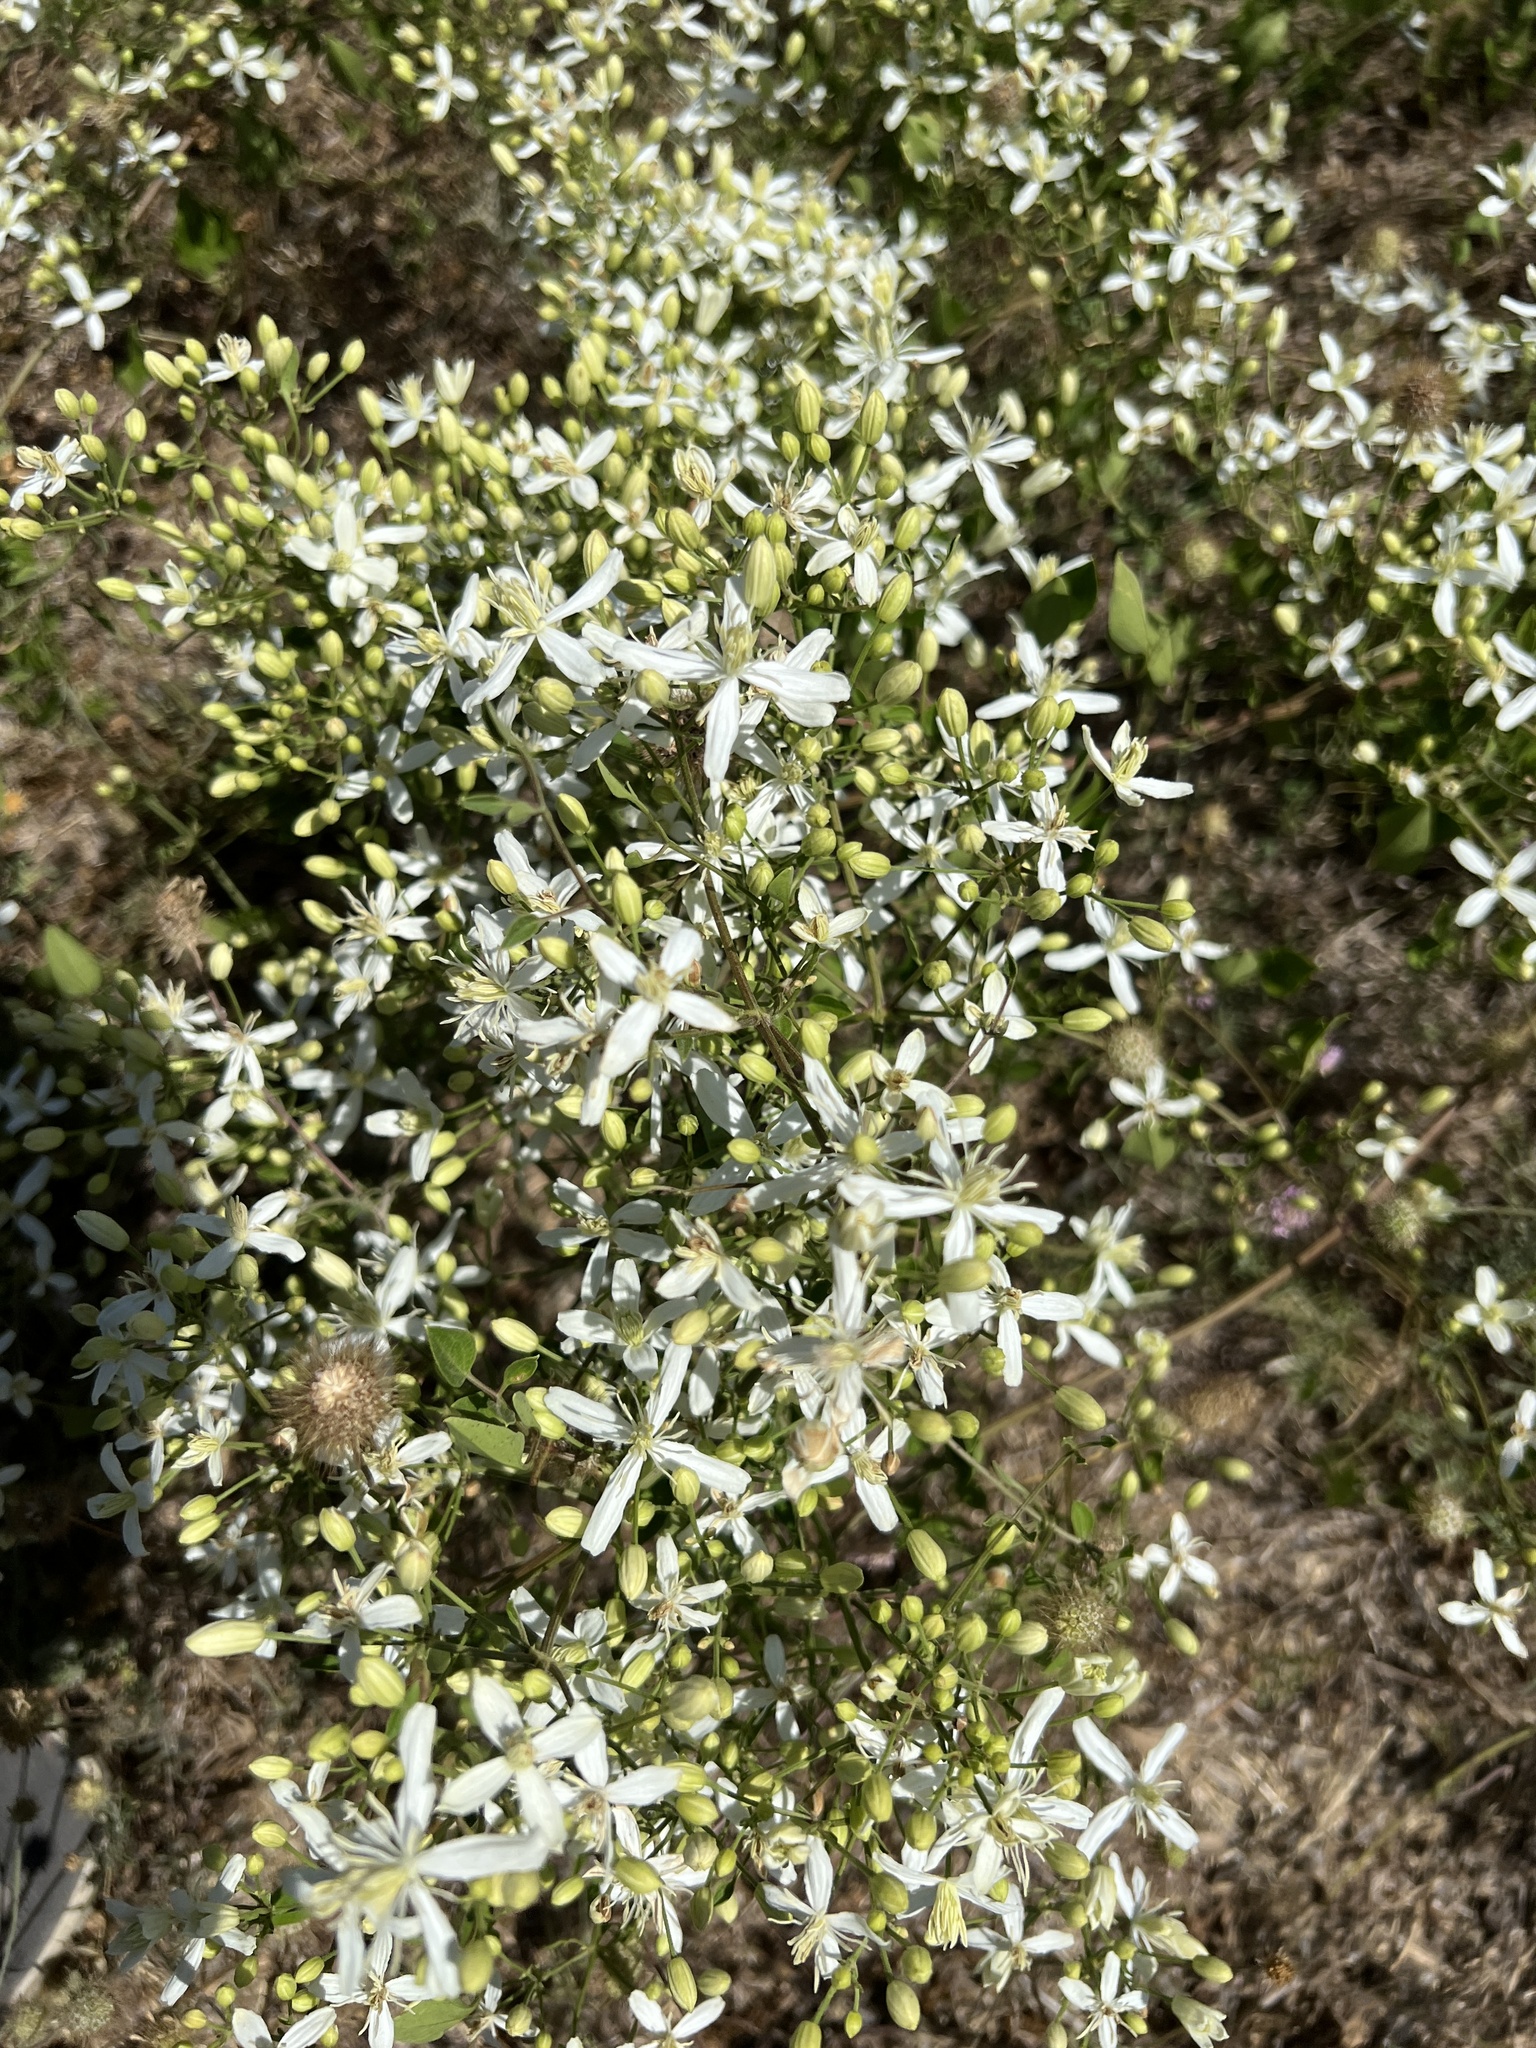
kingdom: Plantae
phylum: Tracheophyta
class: Magnoliopsida
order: Ranunculales
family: Ranunculaceae
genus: Clematis
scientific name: Clematis flammula
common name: Virgin's-bower
